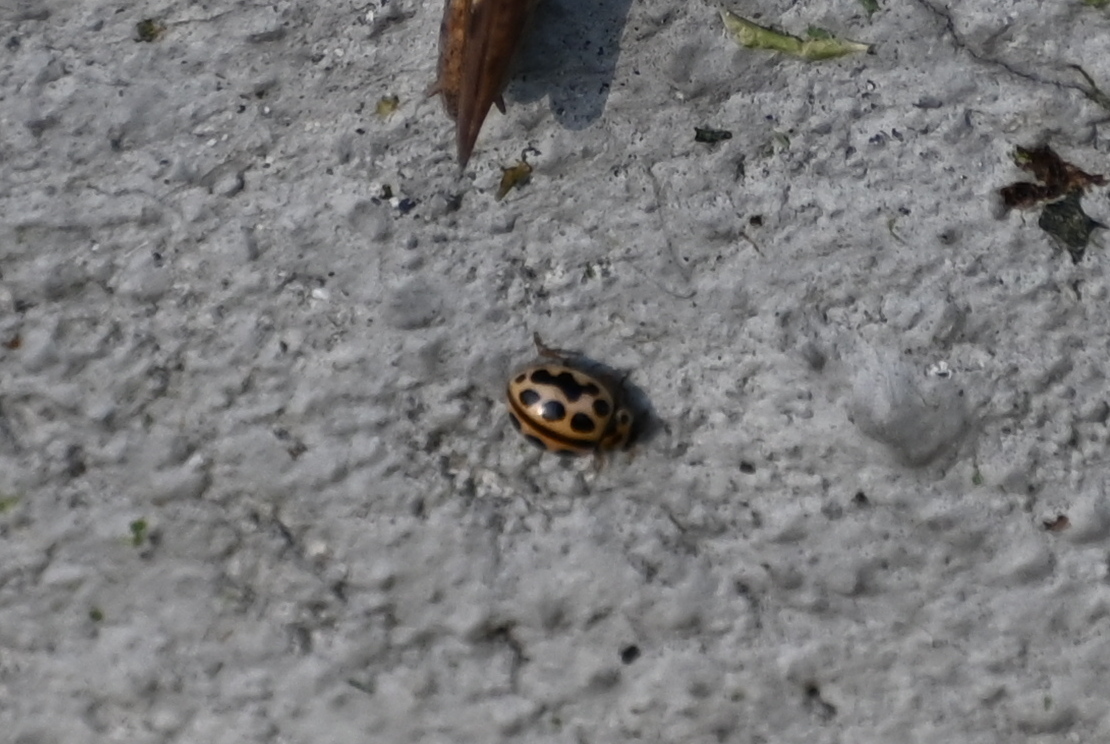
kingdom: Animalia
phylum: Arthropoda
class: Insecta
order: Coleoptera
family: Coccinellidae
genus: Tytthaspis
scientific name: Tytthaspis sedecimpunctata
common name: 16-spot ladybird
